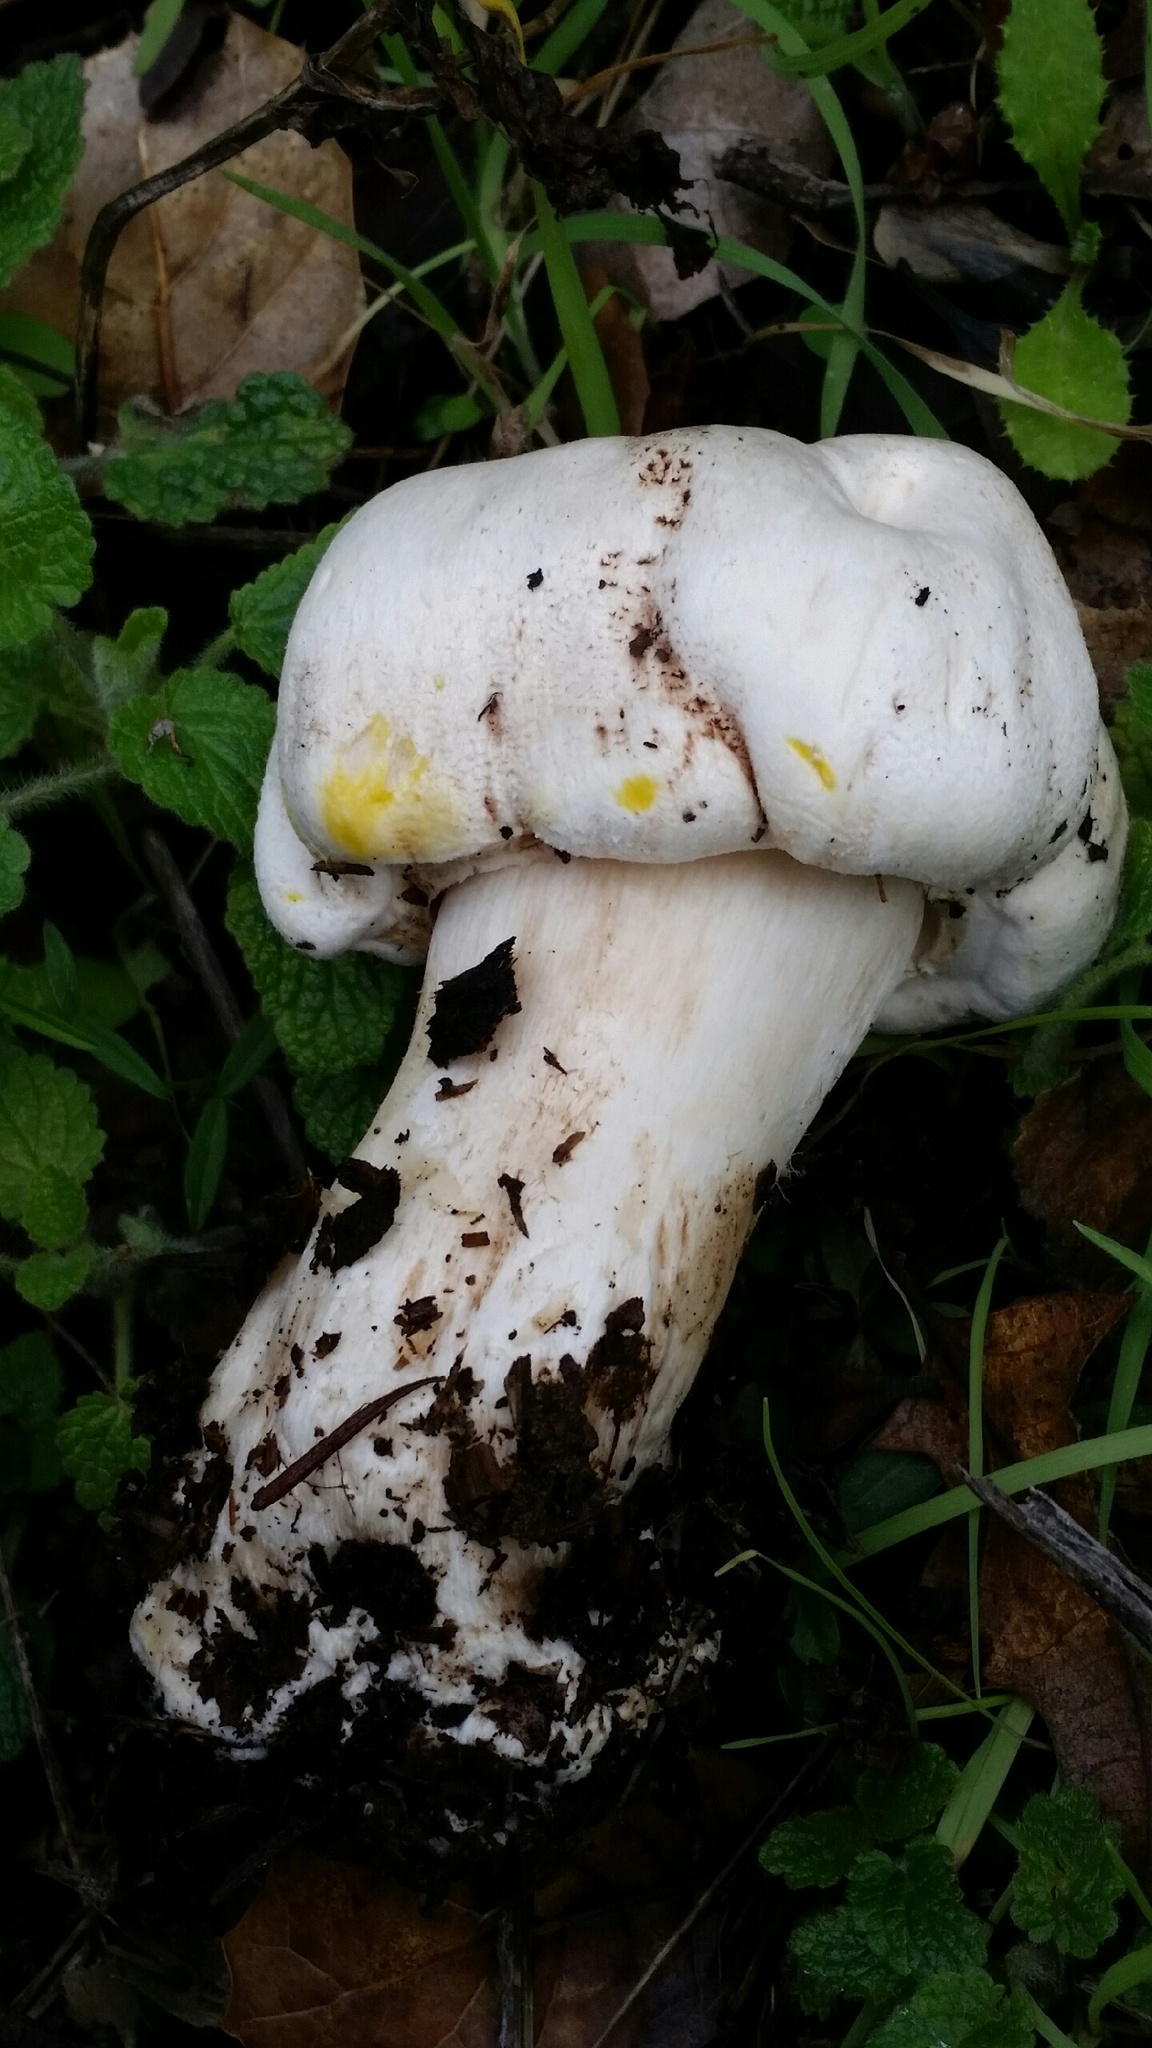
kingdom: Fungi
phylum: Basidiomycota
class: Agaricomycetes
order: Agaricales
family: Agaricaceae
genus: Agaricus
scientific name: Agaricus xanthodermus
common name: Yellow stainer
